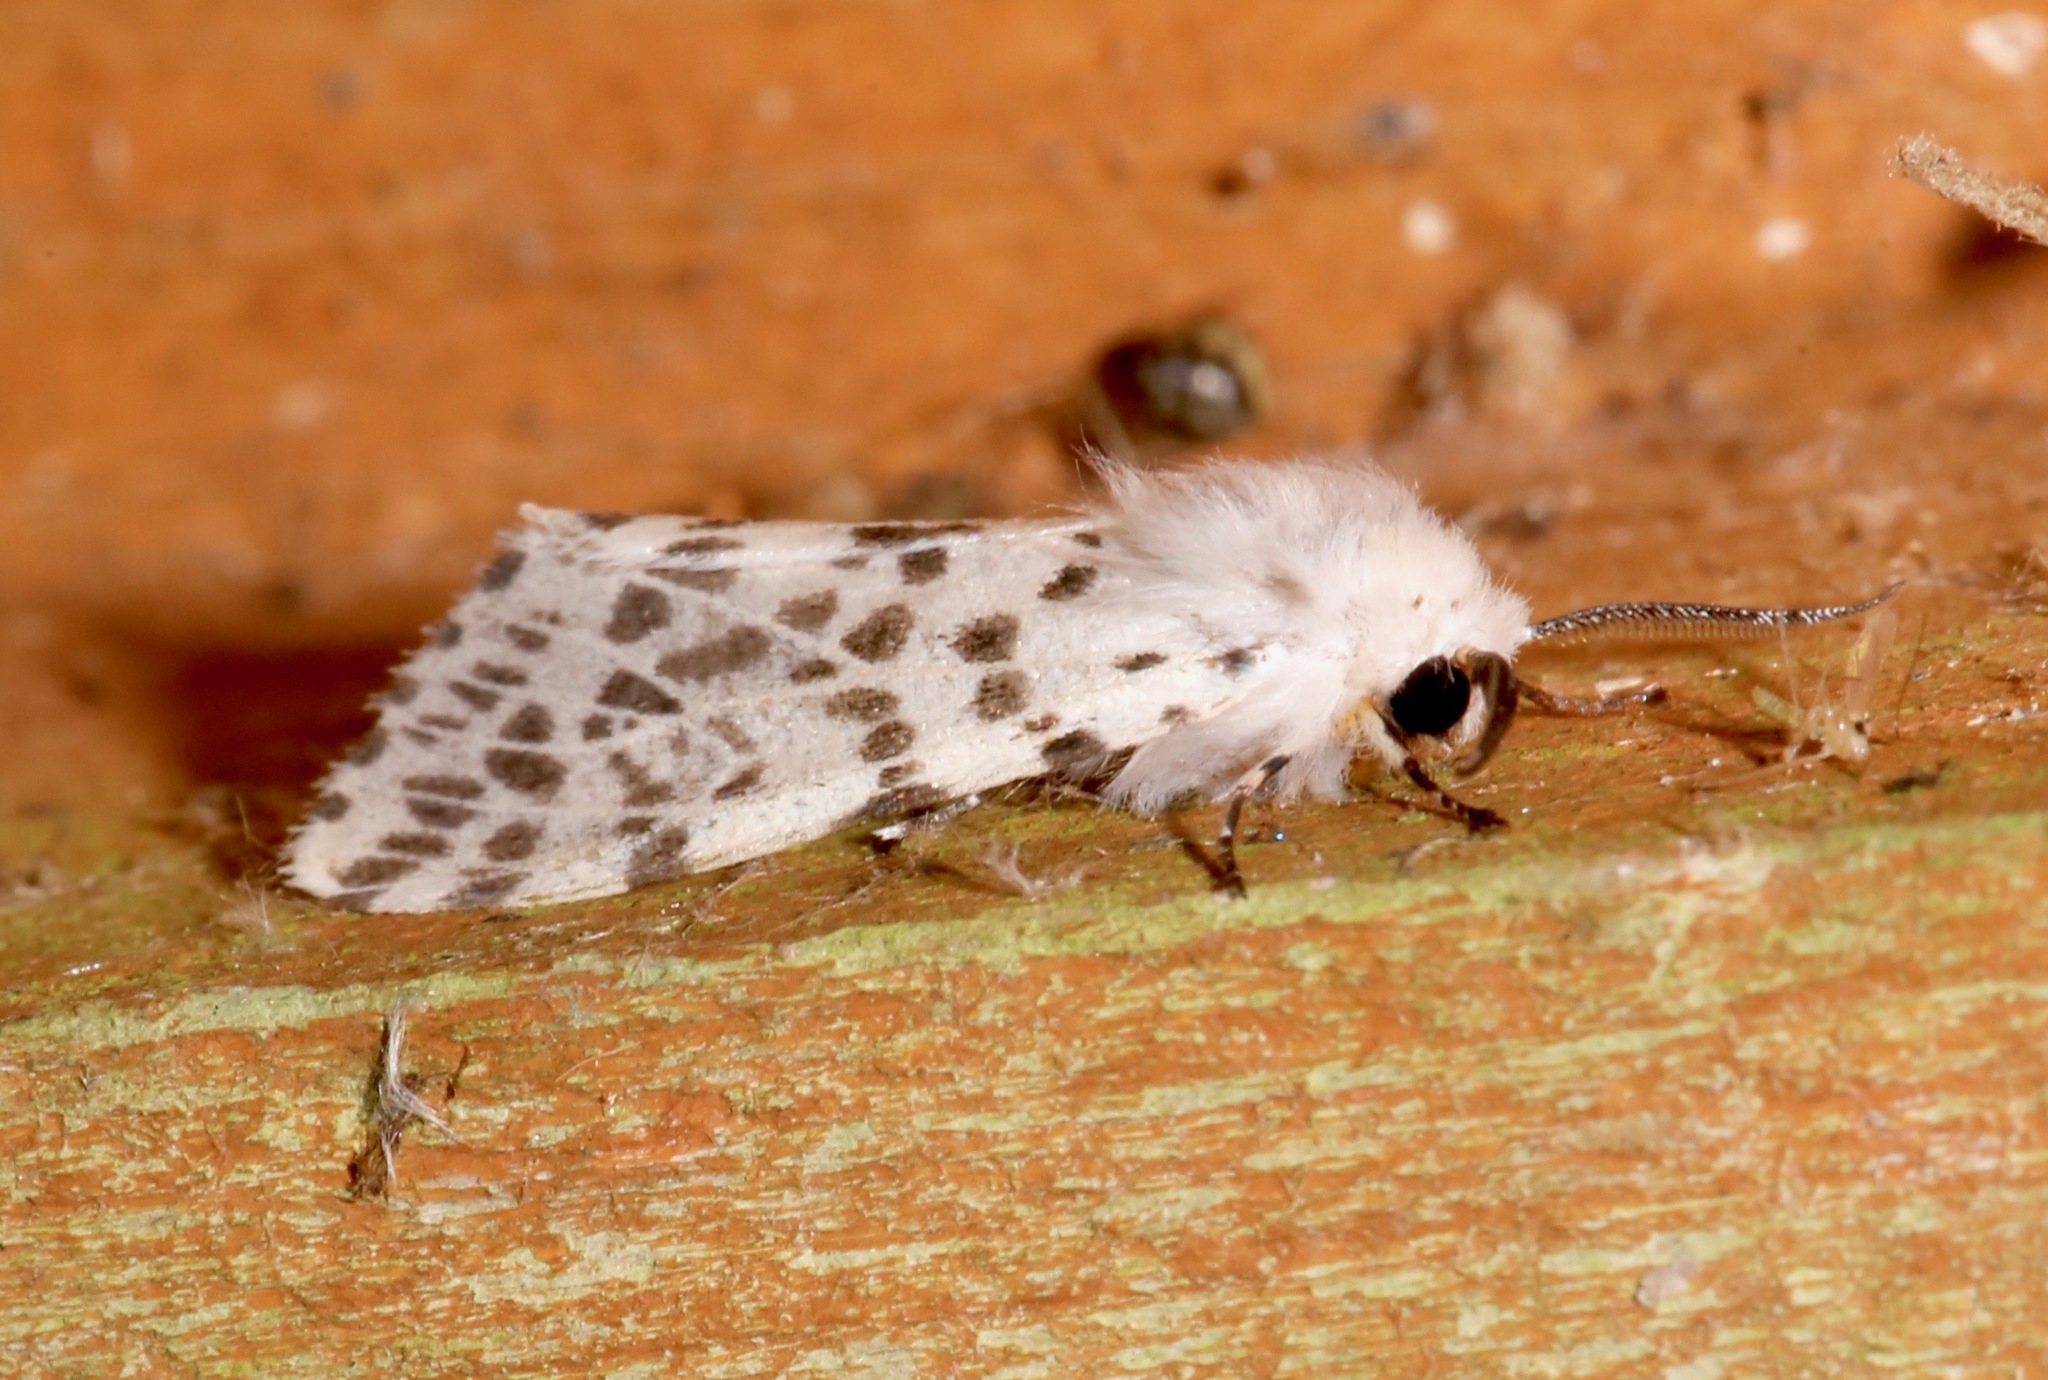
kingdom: Animalia
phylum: Arthropoda
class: Insecta
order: Lepidoptera
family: Erebidae
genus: Hyphantria
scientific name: Hyphantria cunea
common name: American white moth
